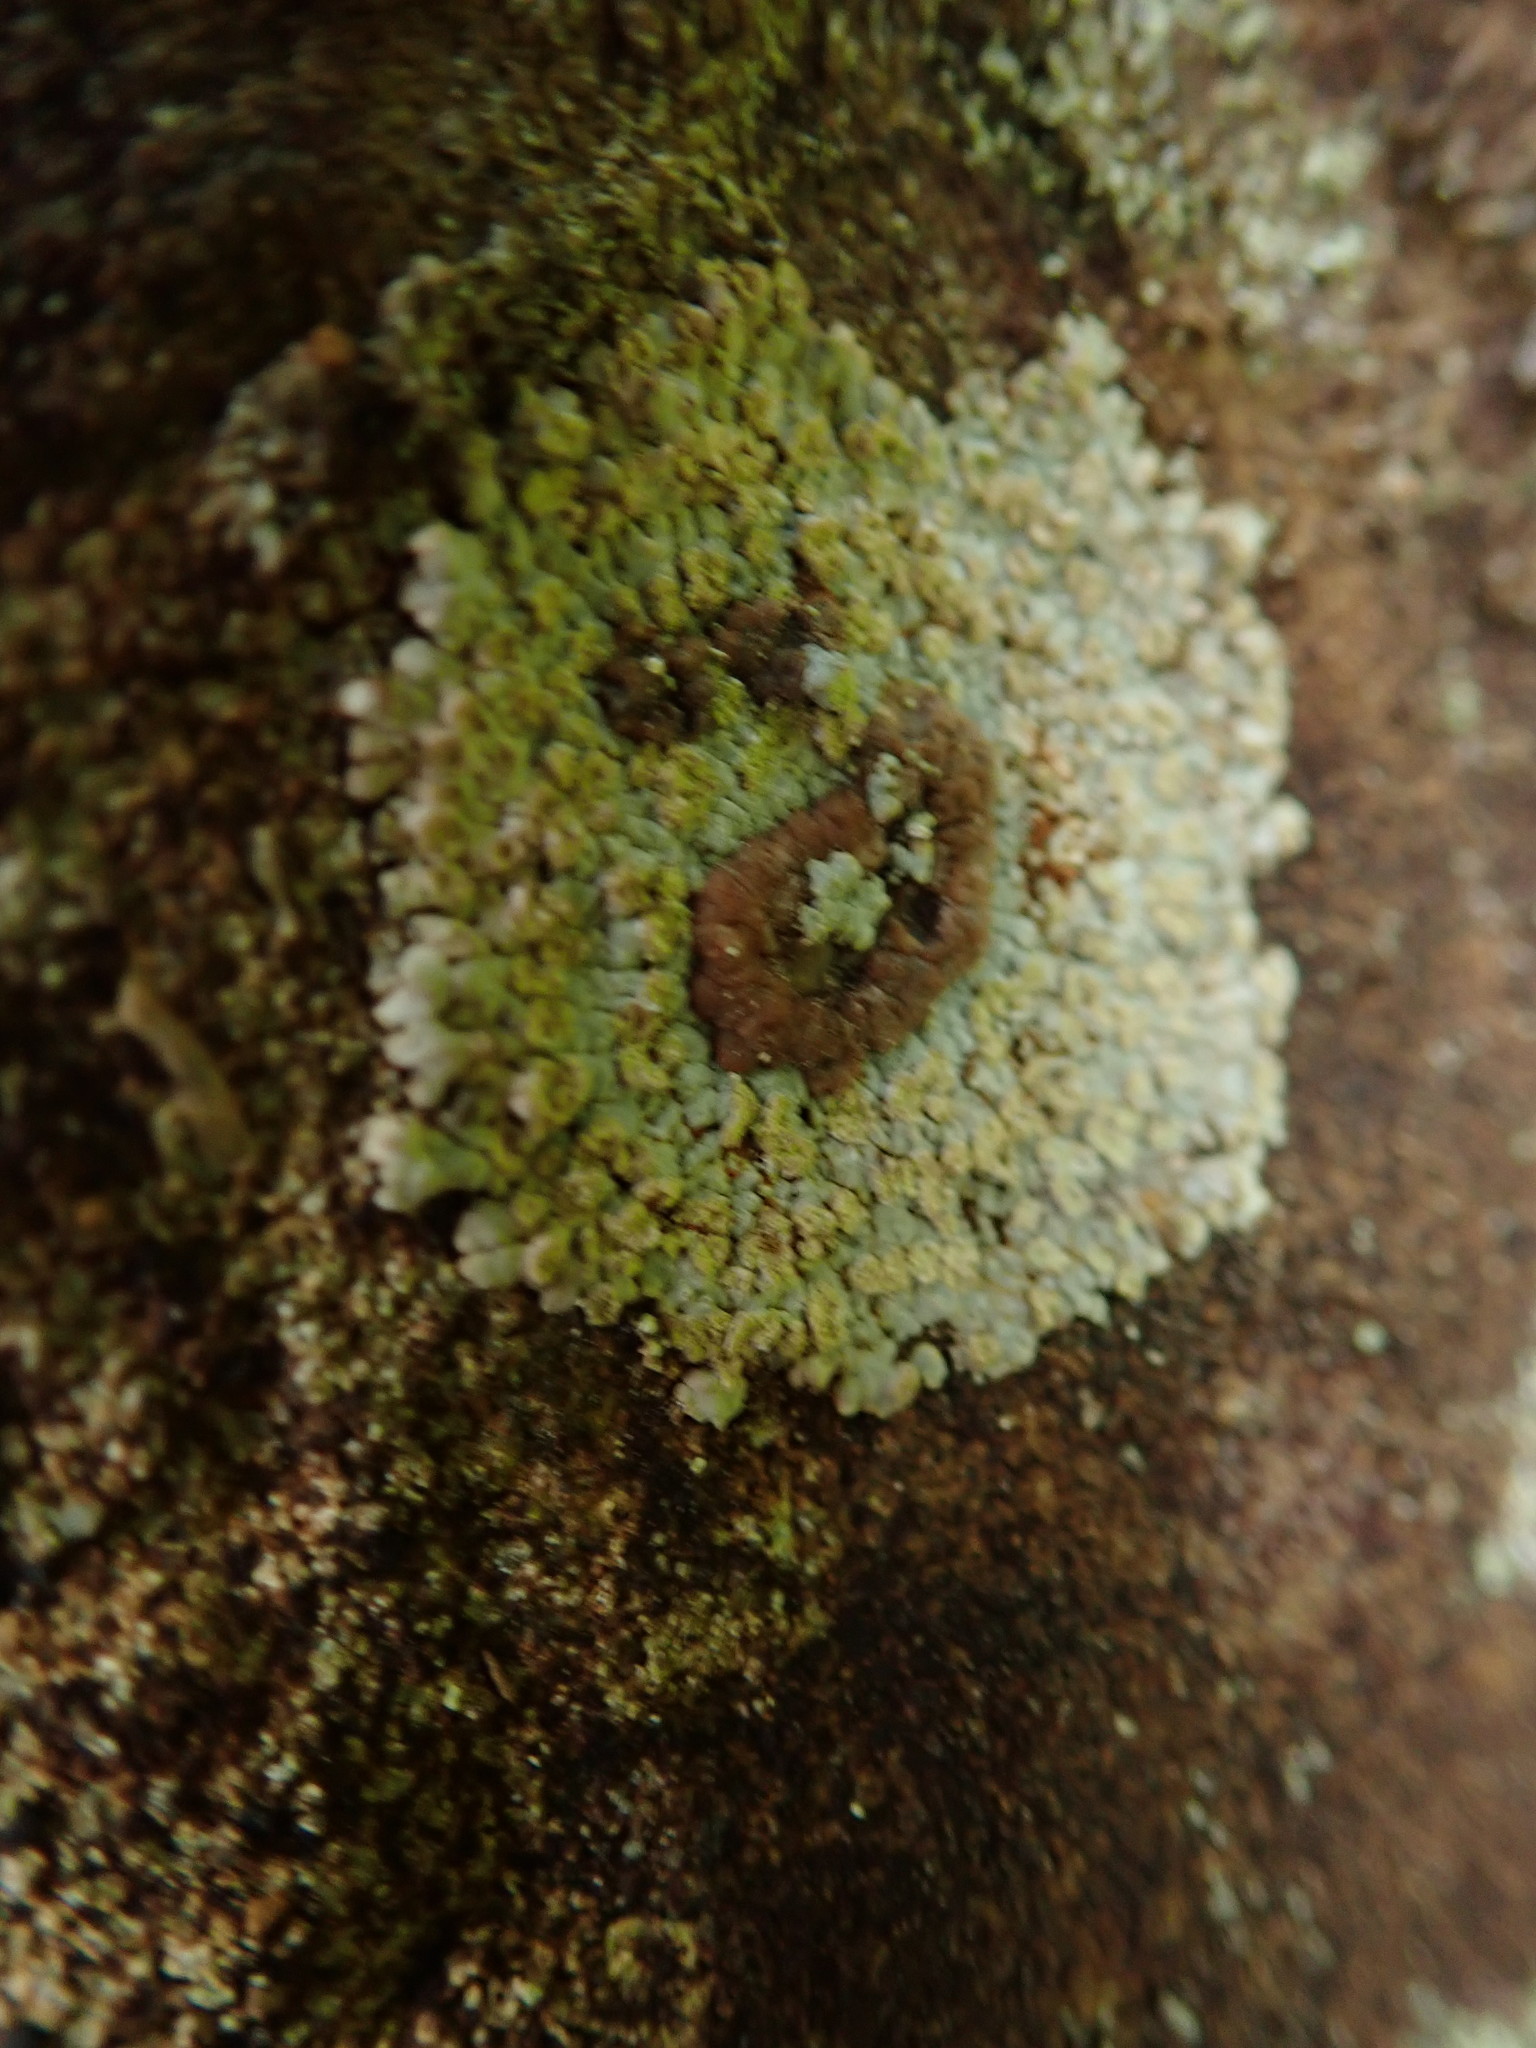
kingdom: Fungi
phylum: Ascomycota
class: Lecanoromycetes
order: Baeomycetales
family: Trapeliaceae
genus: Placopsis
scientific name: Placopsis gelida
